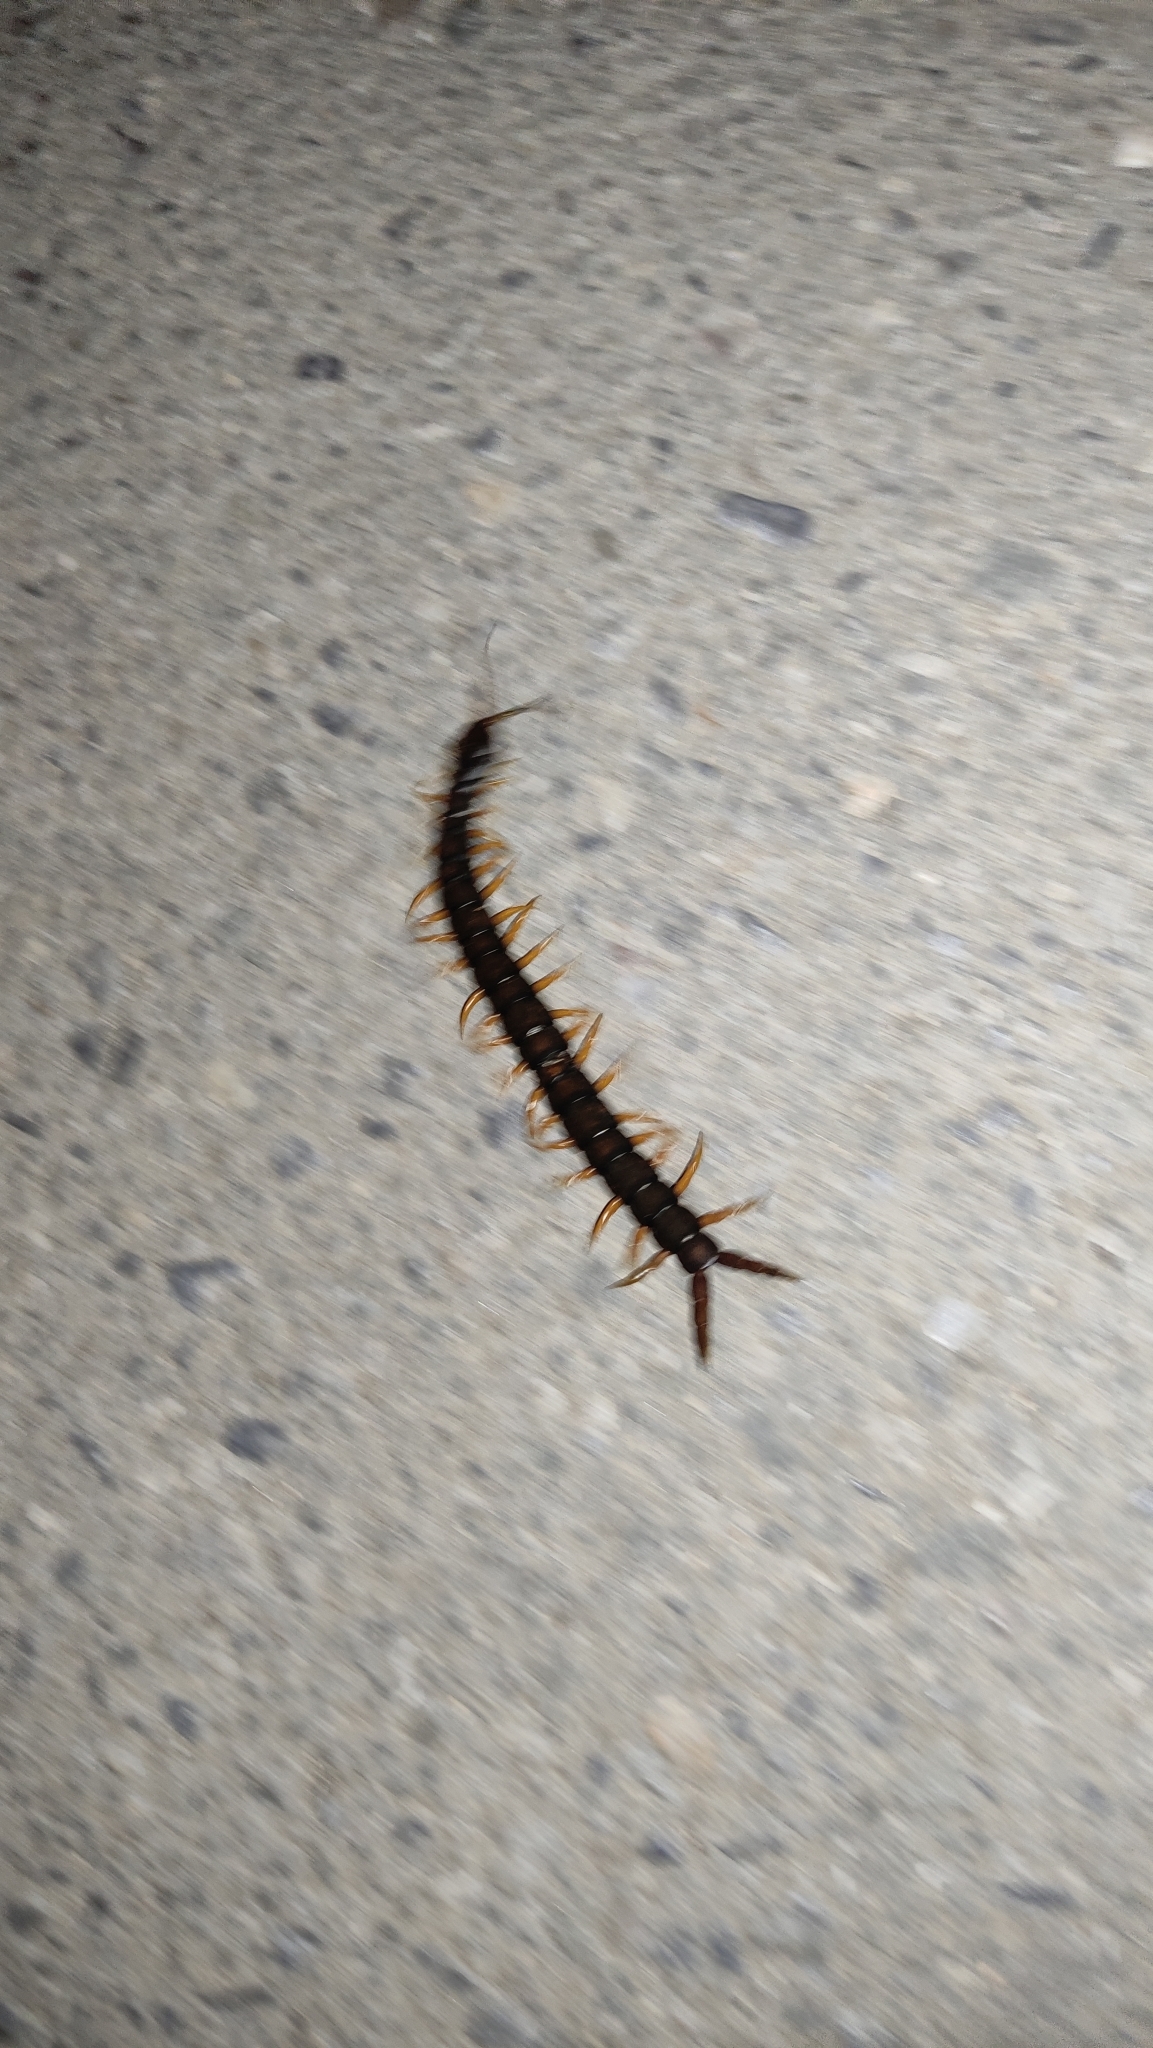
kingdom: Animalia
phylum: Arthropoda
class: Chilopoda
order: Scolopendromorpha
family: Scolopendridae
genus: Scolopendra
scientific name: Scolopendra cingulata
